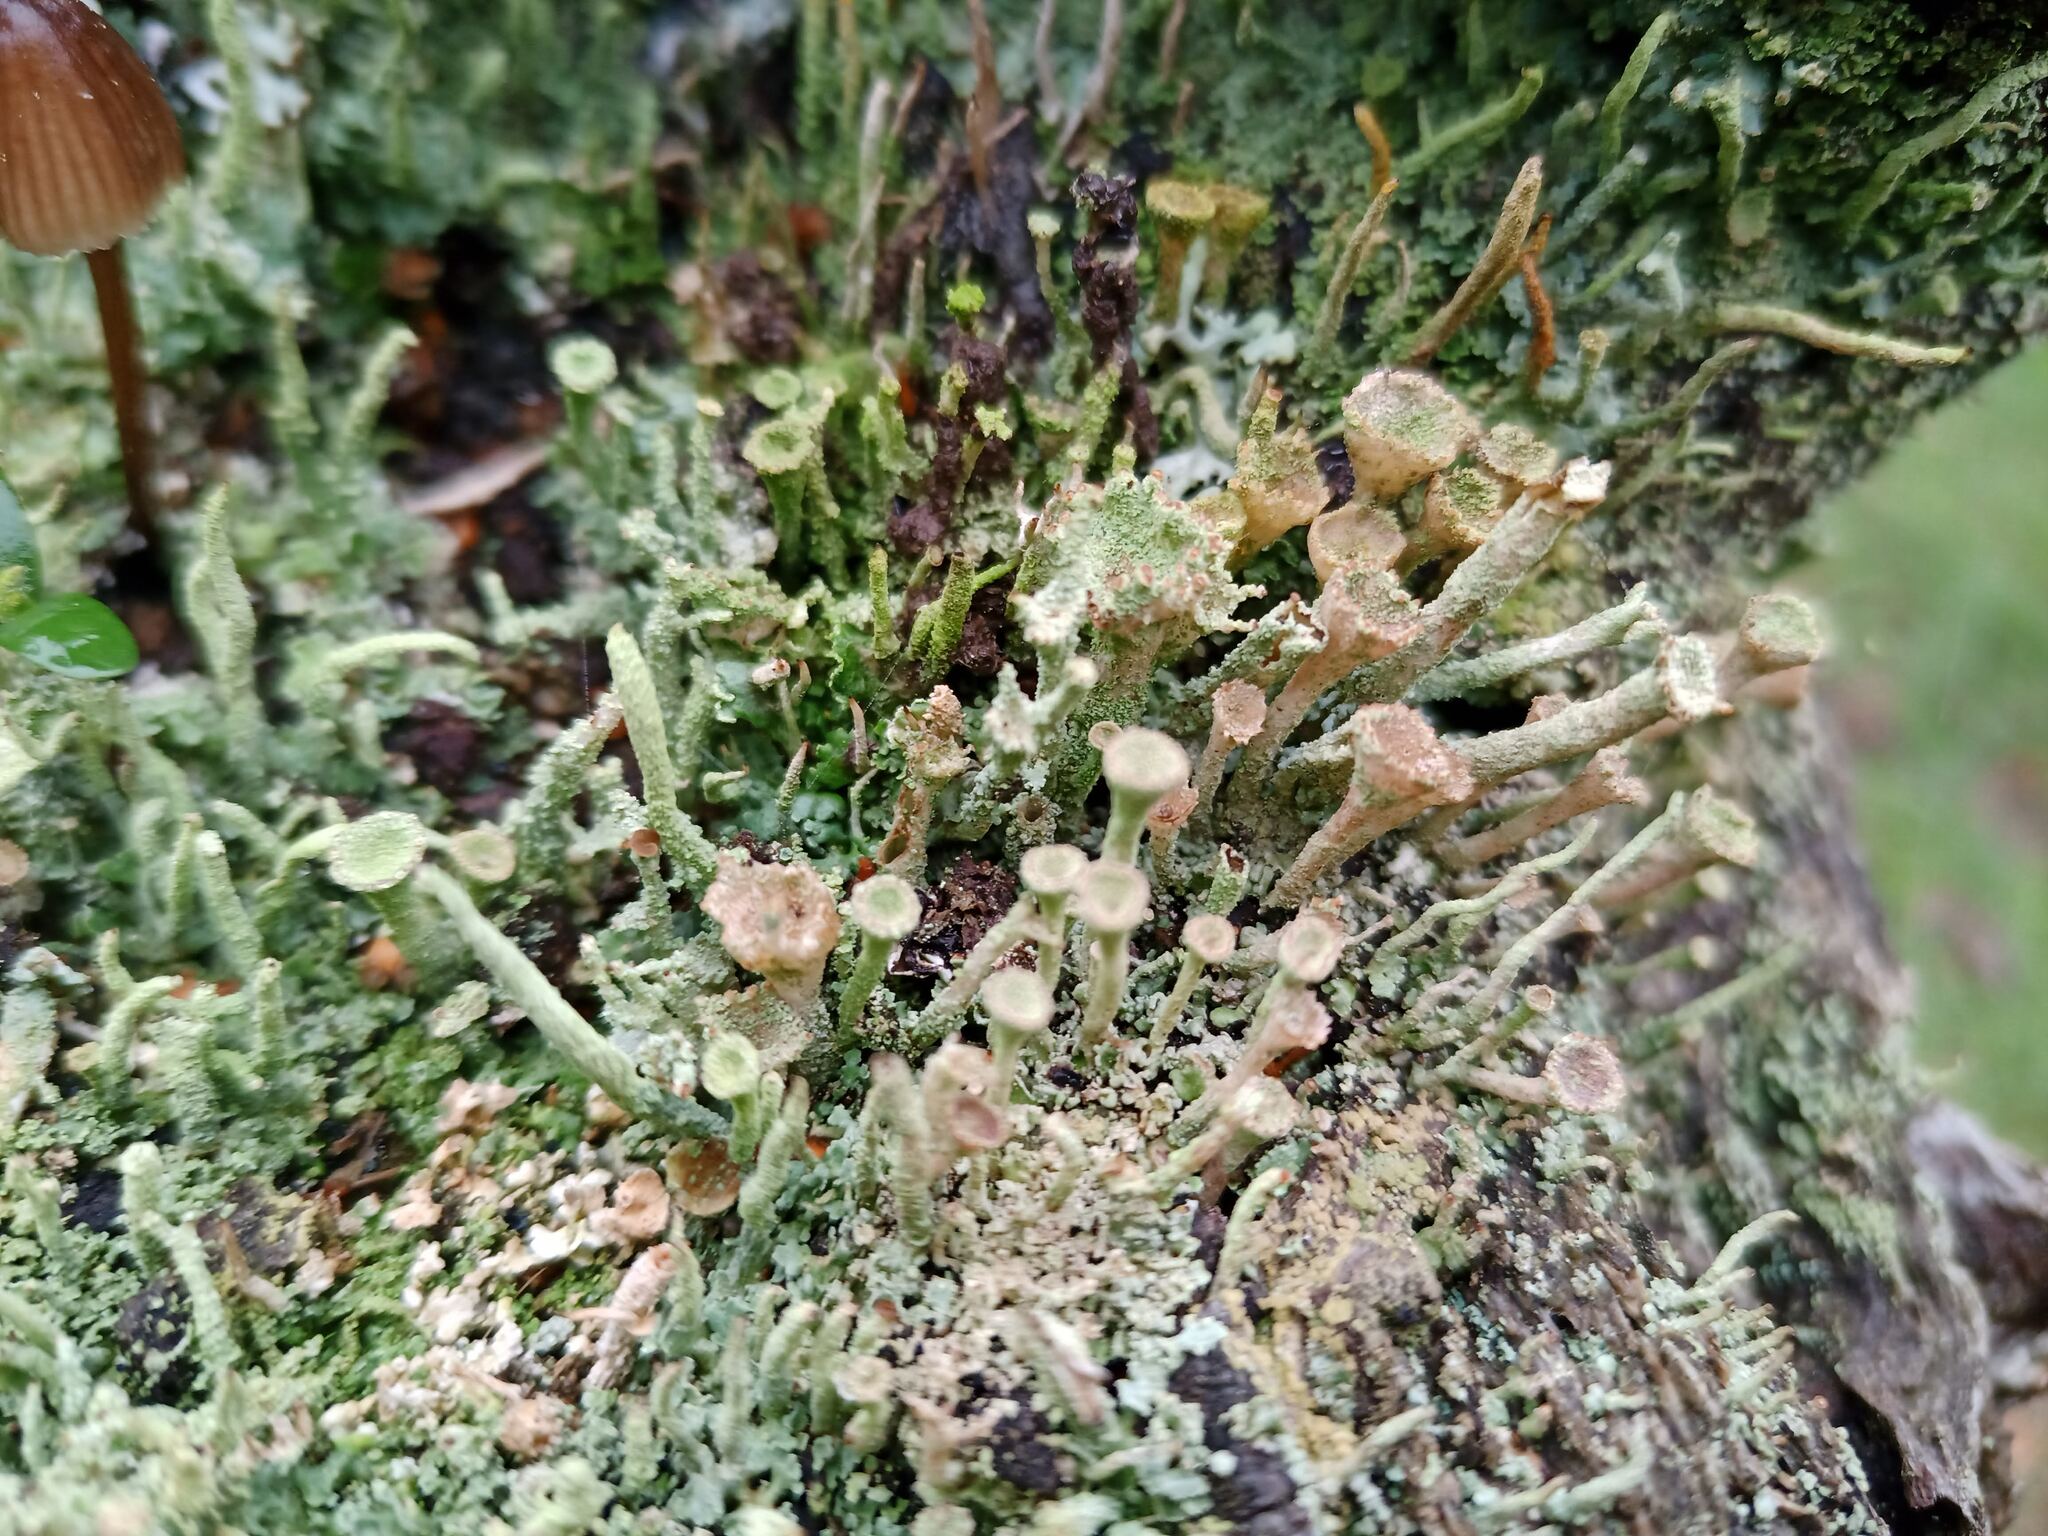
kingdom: Fungi
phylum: Ascomycota
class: Lecanoromycetes
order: Lecanorales
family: Cladoniaceae
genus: Cladonia
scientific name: Cladonia pyxidata
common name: Pebbled pixie cup
